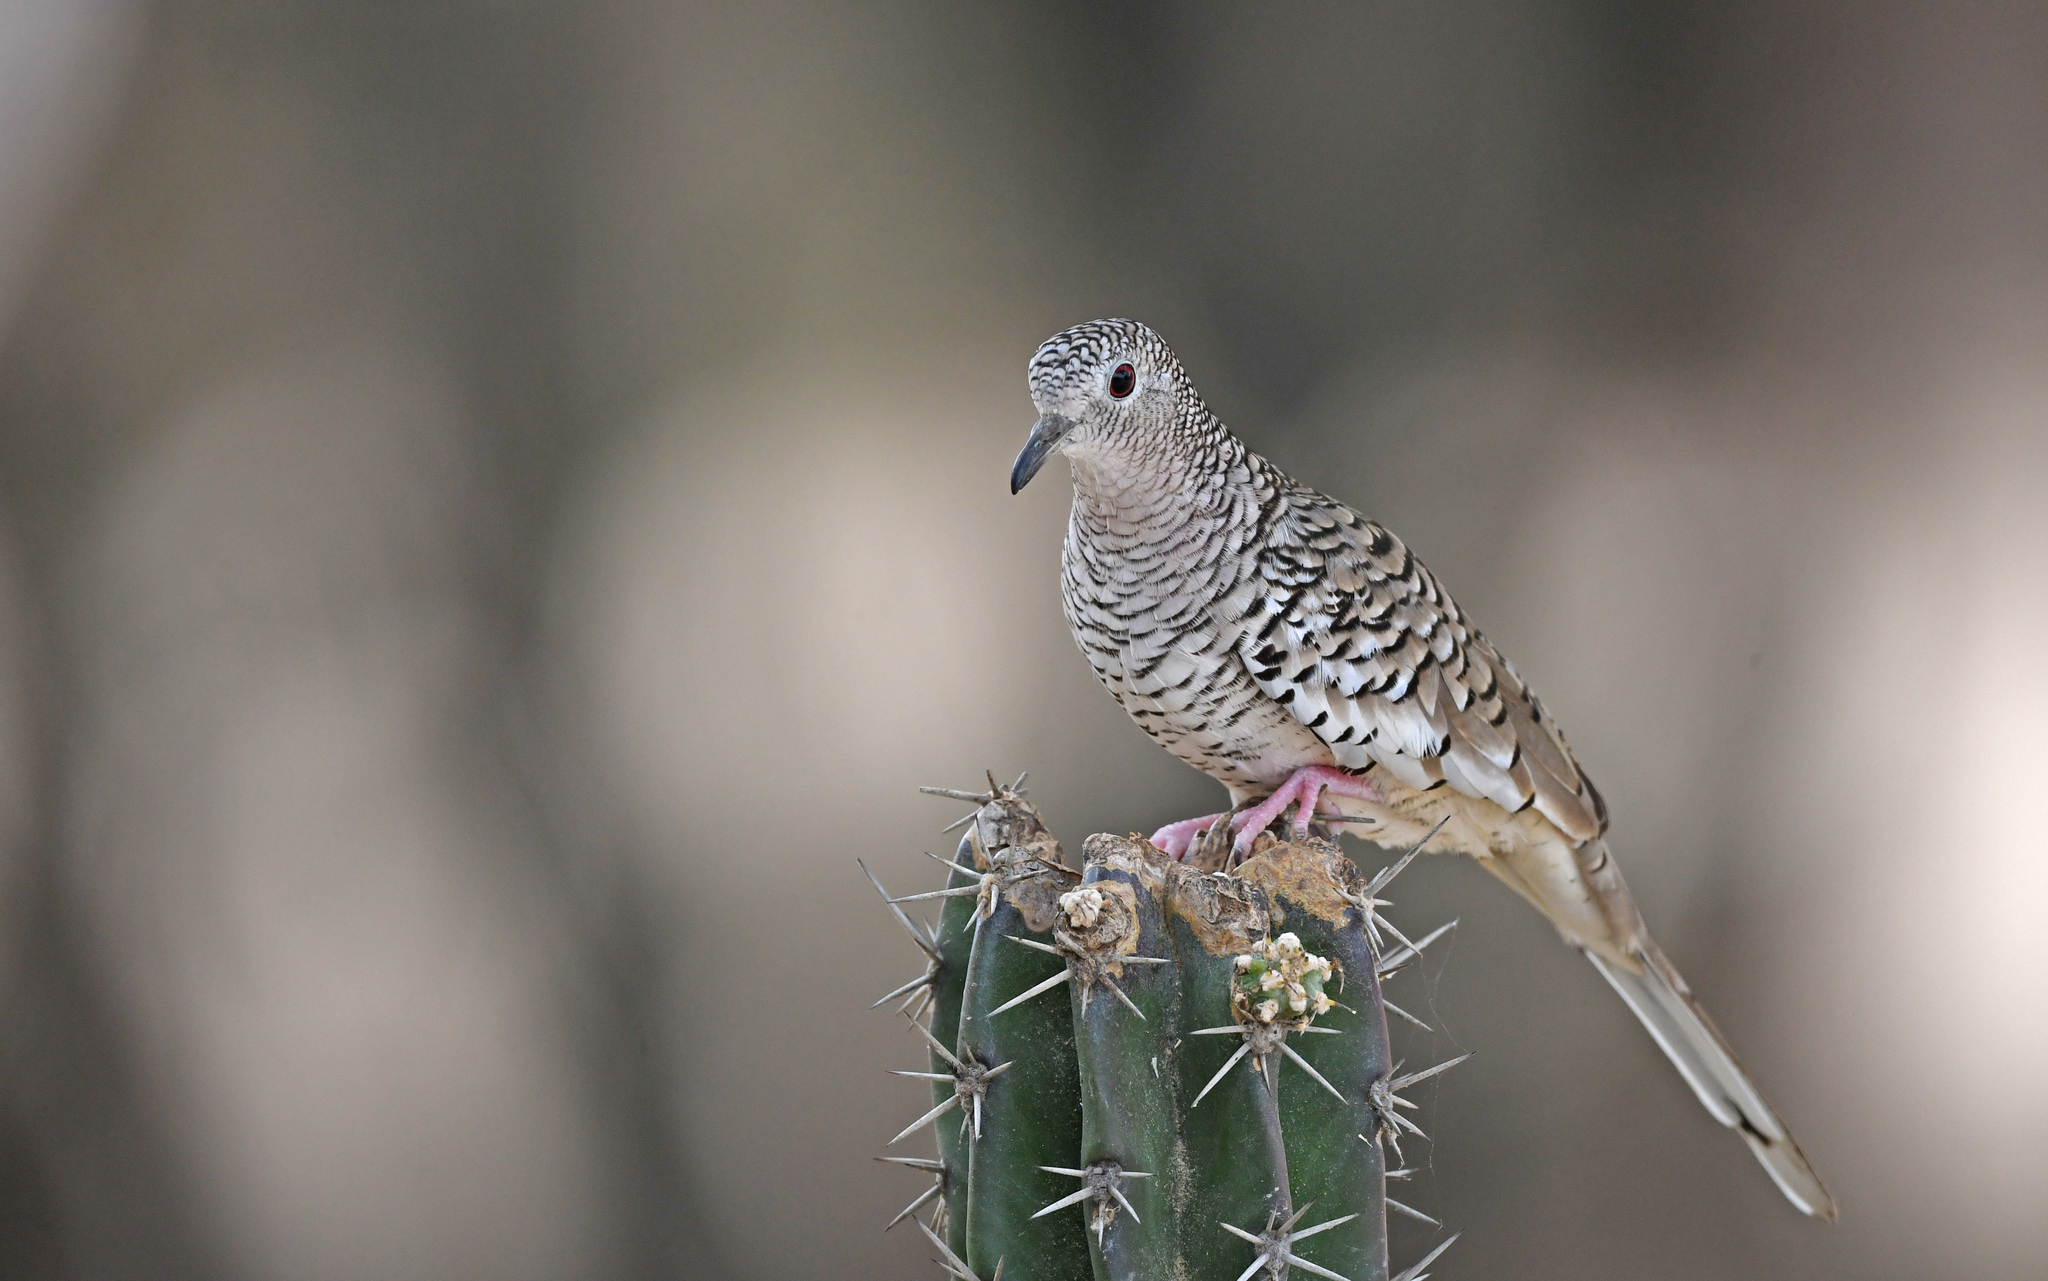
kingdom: Animalia
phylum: Chordata
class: Aves
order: Columbiformes
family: Columbidae
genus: Columbina
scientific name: Columbina squammata
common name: Scaled dove
